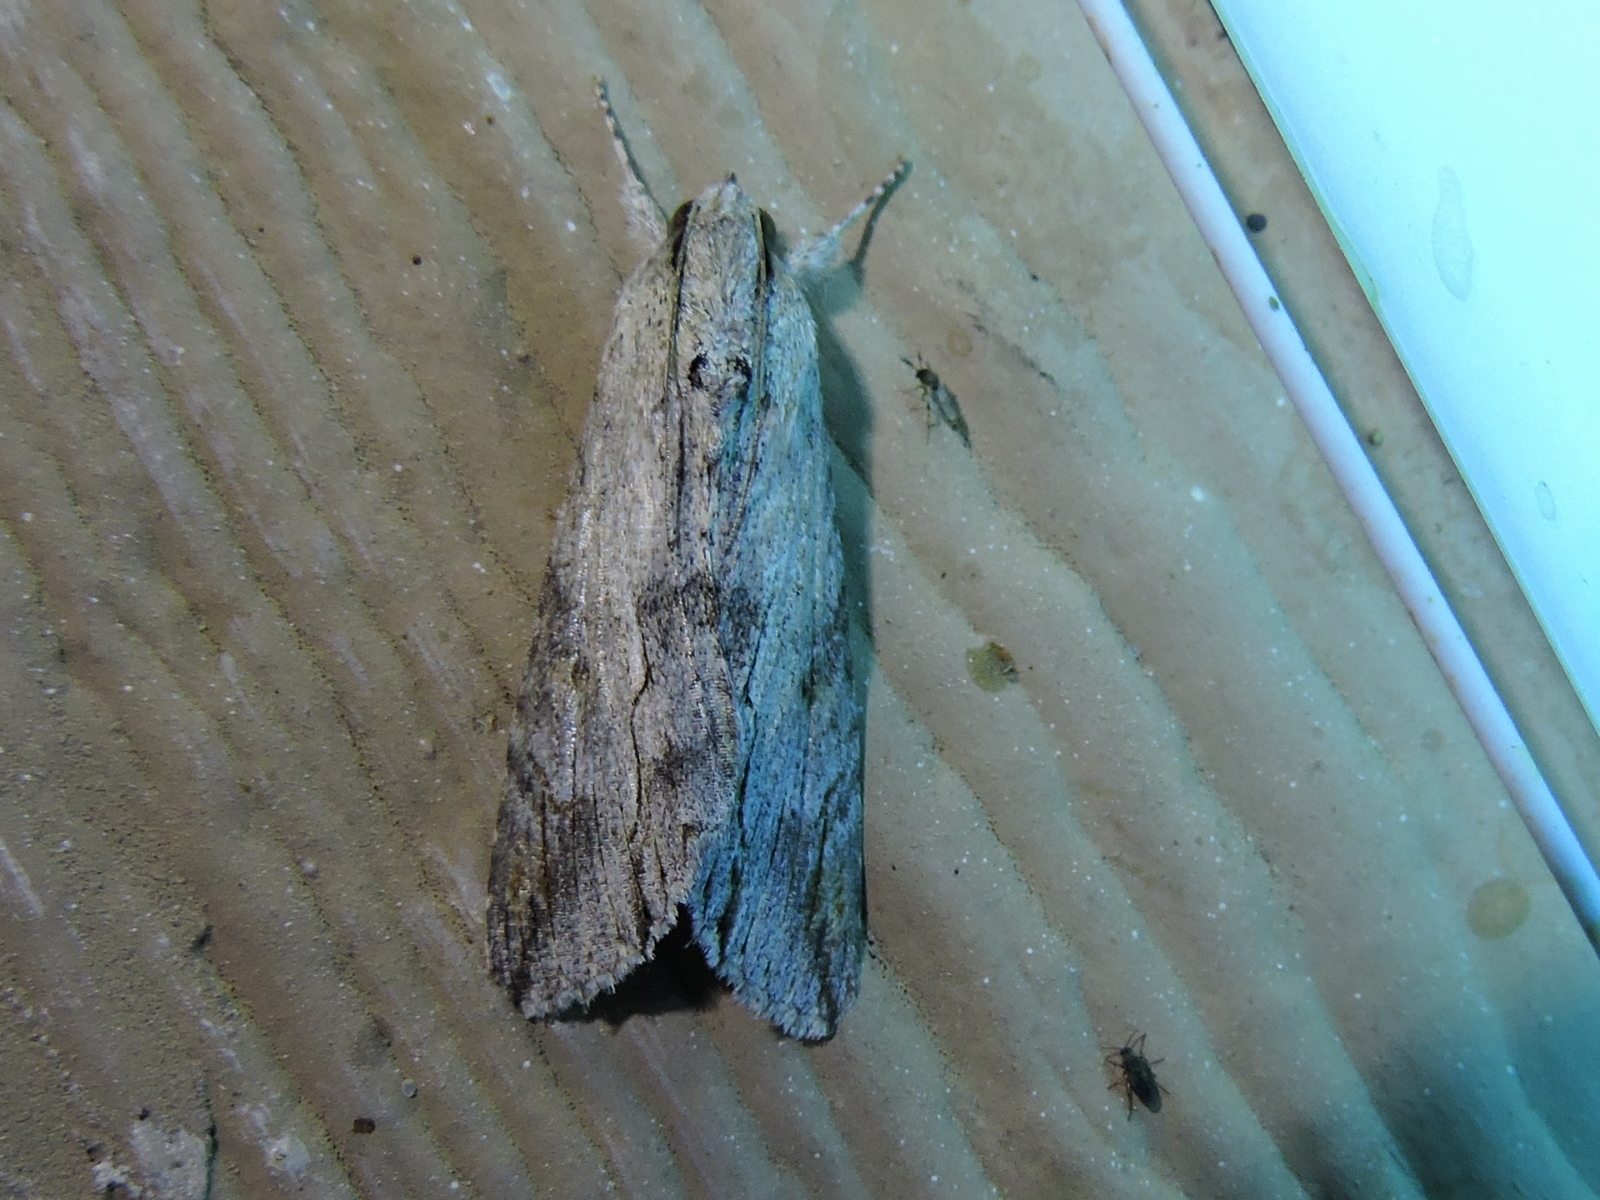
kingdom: Animalia
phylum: Arthropoda
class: Insecta
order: Lepidoptera
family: Erebidae
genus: Melipotis
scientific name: Melipotis acontioides
